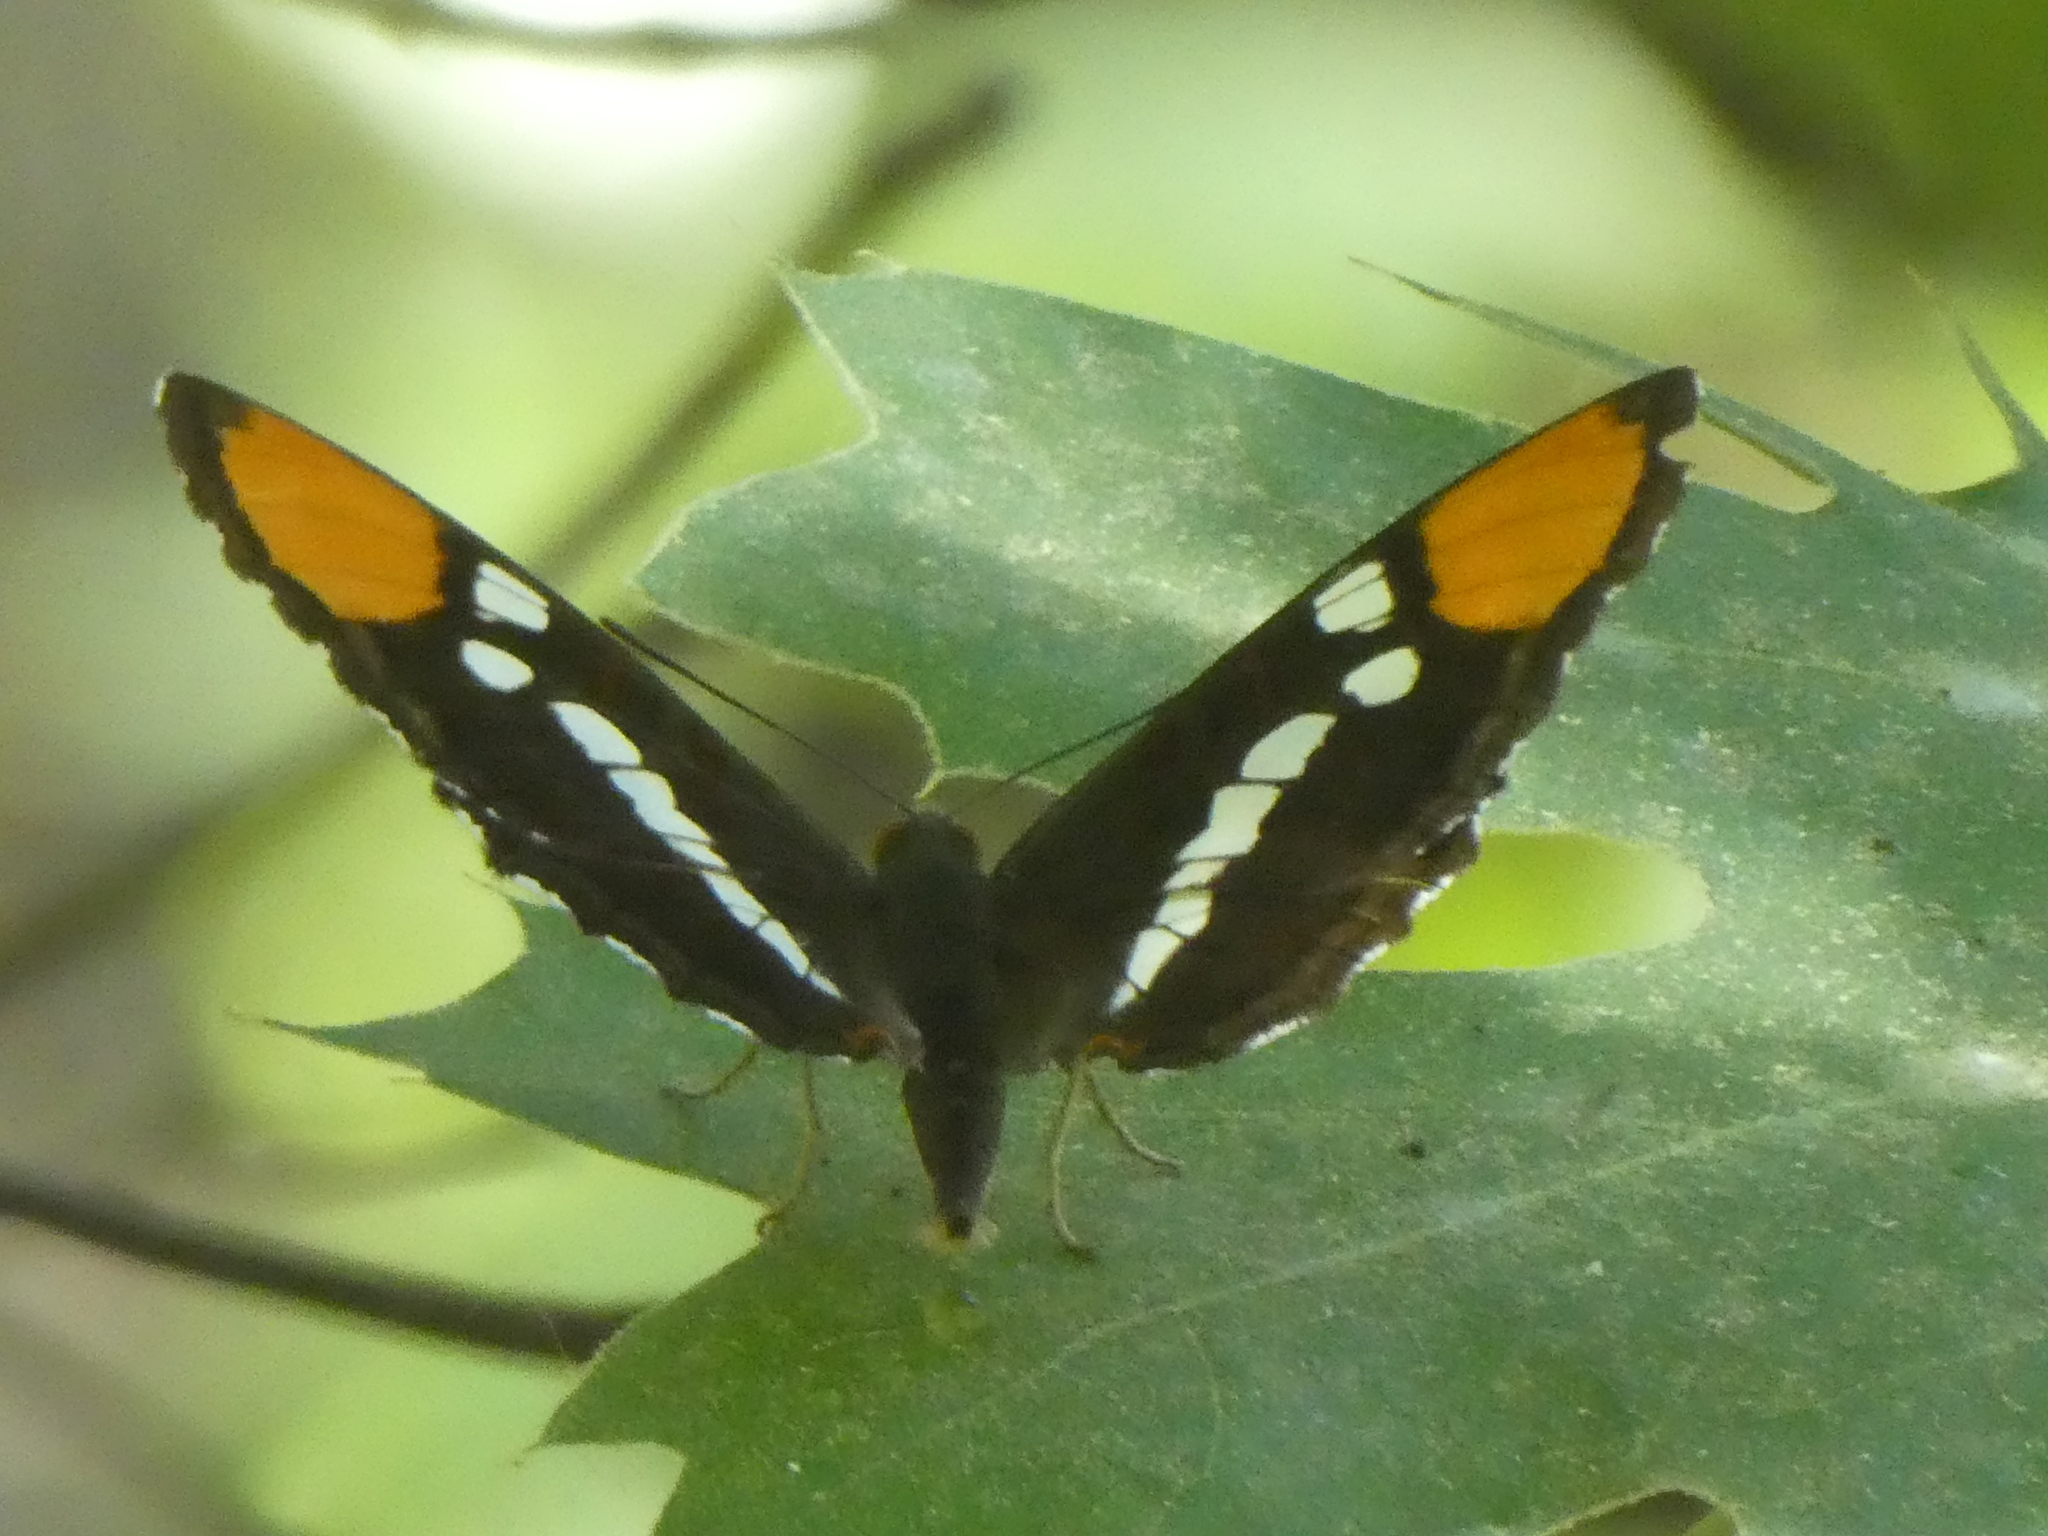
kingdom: Animalia
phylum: Arthropoda
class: Insecta
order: Lepidoptera
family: Nymphalidae
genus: Limenitis
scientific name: Limenitis bredowii
